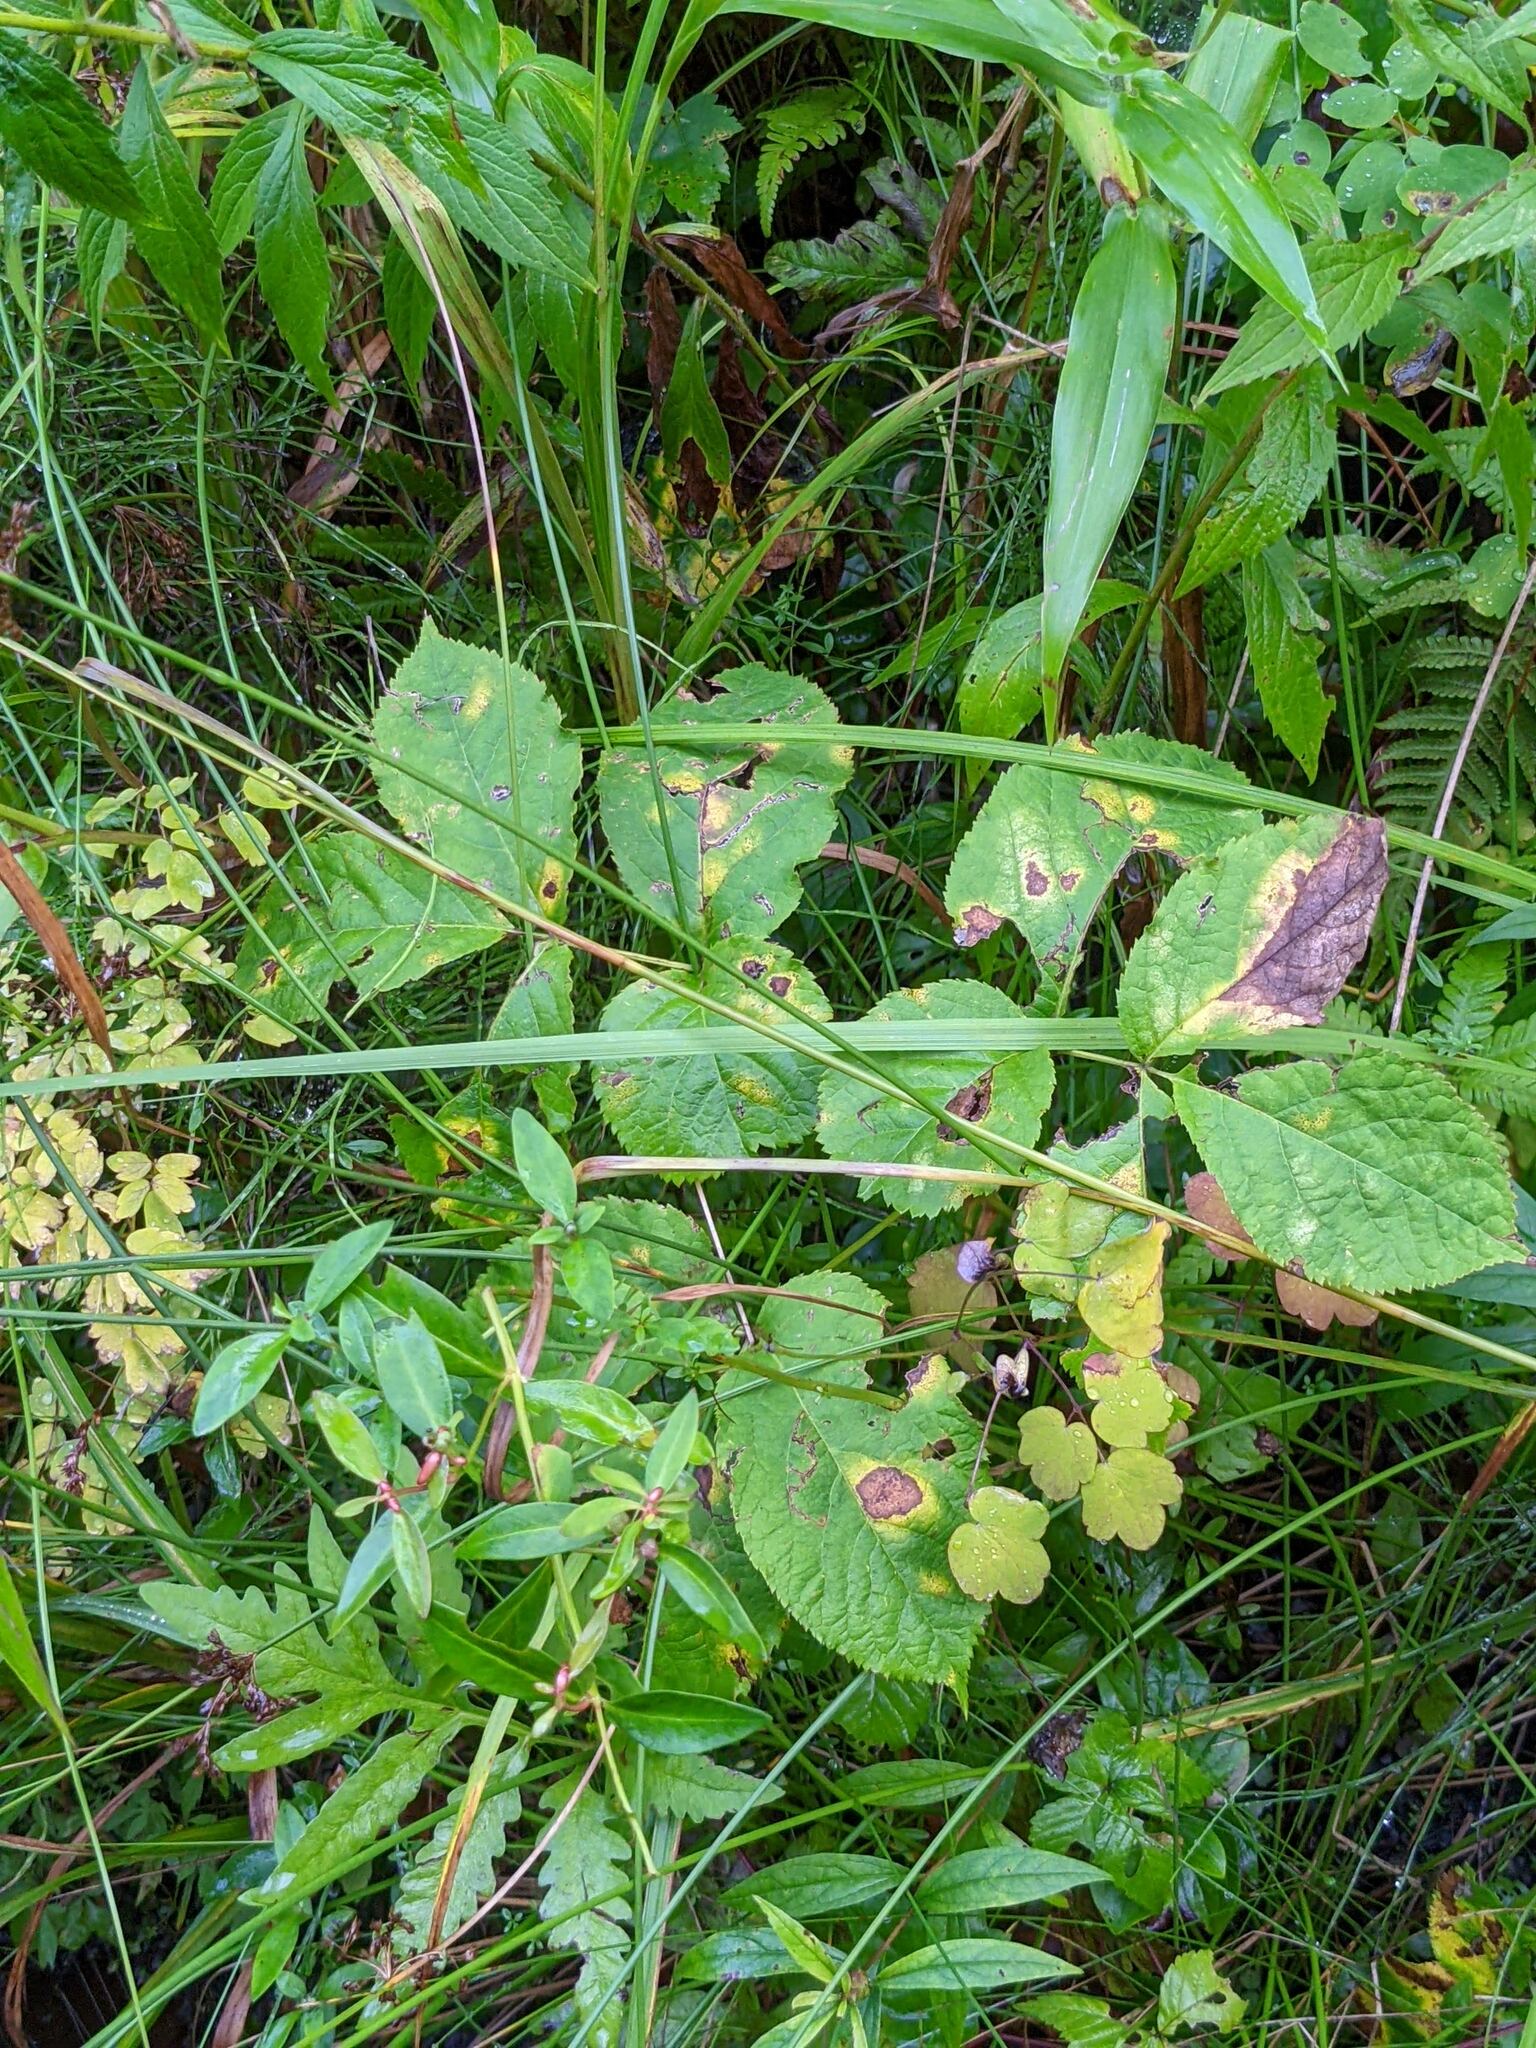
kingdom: Plantae
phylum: Tracheophyta
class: Magnoliopsida
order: Apiales
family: Araliaceae
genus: Aralia
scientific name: Aralia nudicaulis
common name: Wild sarsaparilla
